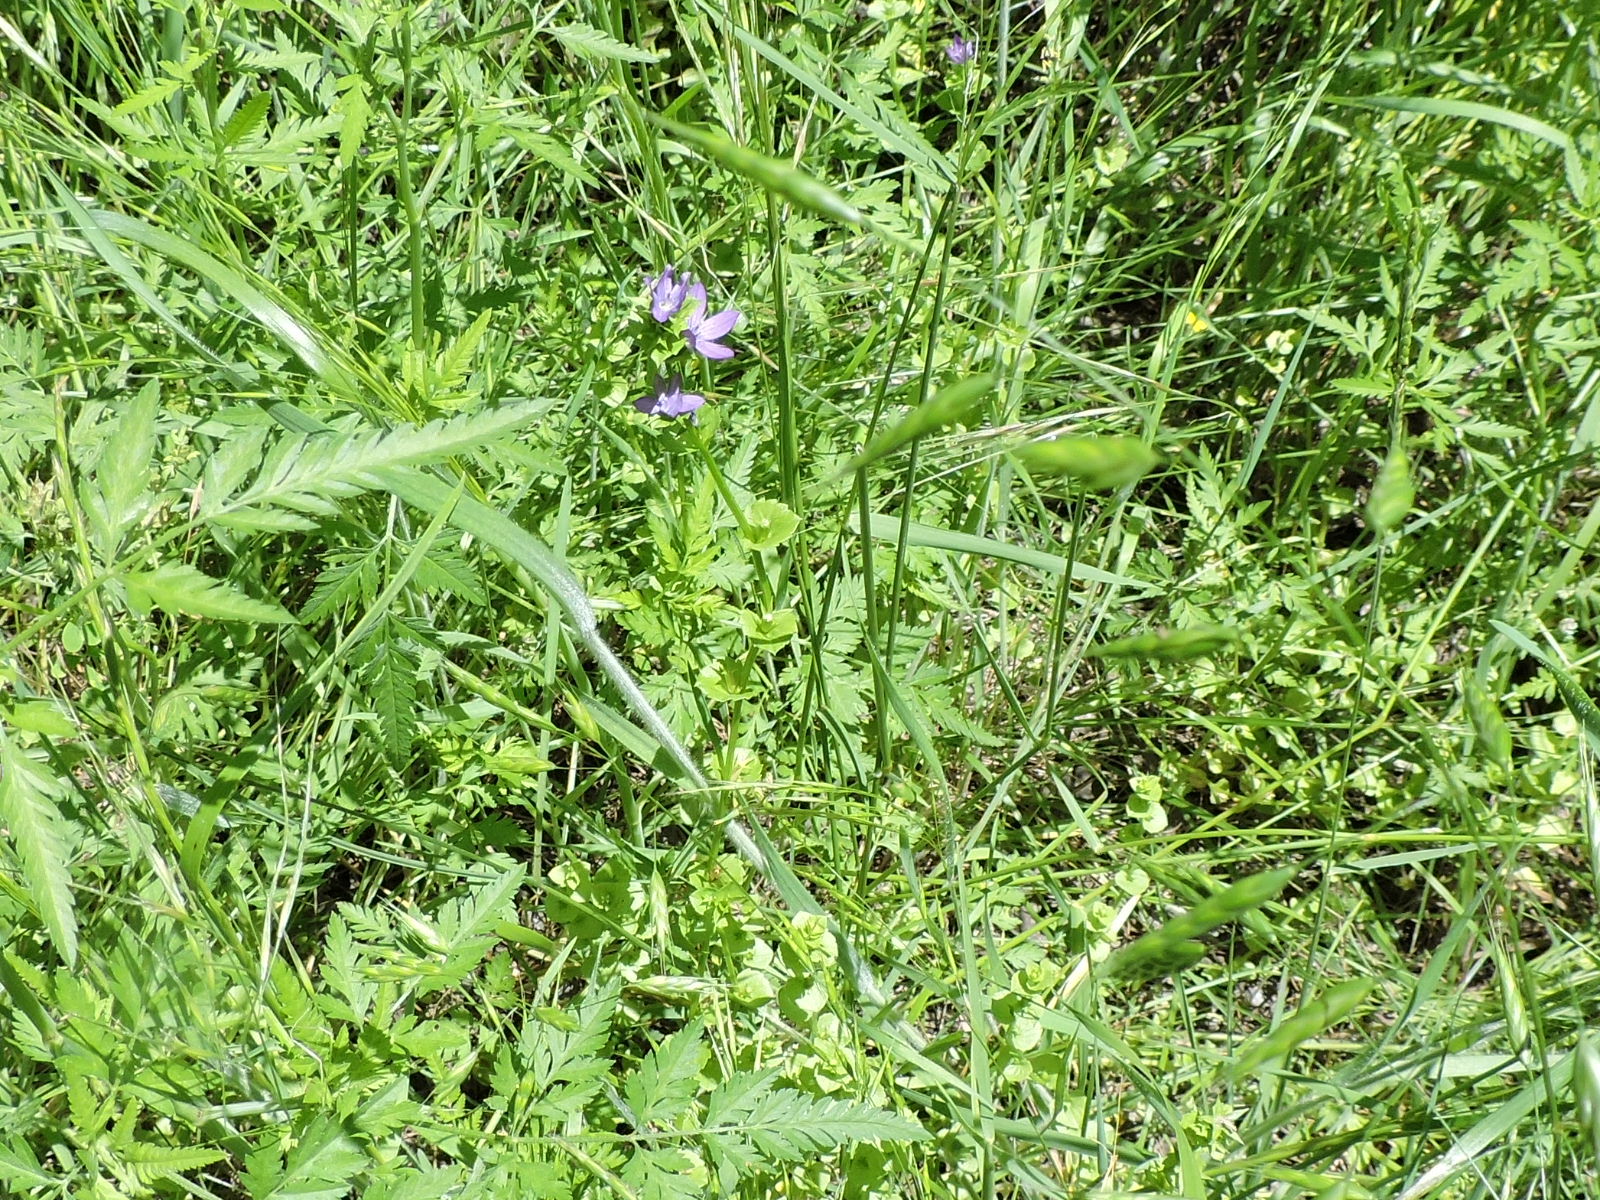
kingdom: Plantae
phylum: Tracheophyta
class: Magnoliopsida
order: Asterales
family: Campanulaceae
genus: Triodanis
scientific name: Triodanis perfoliata
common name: Clasping venus' looking-glass
